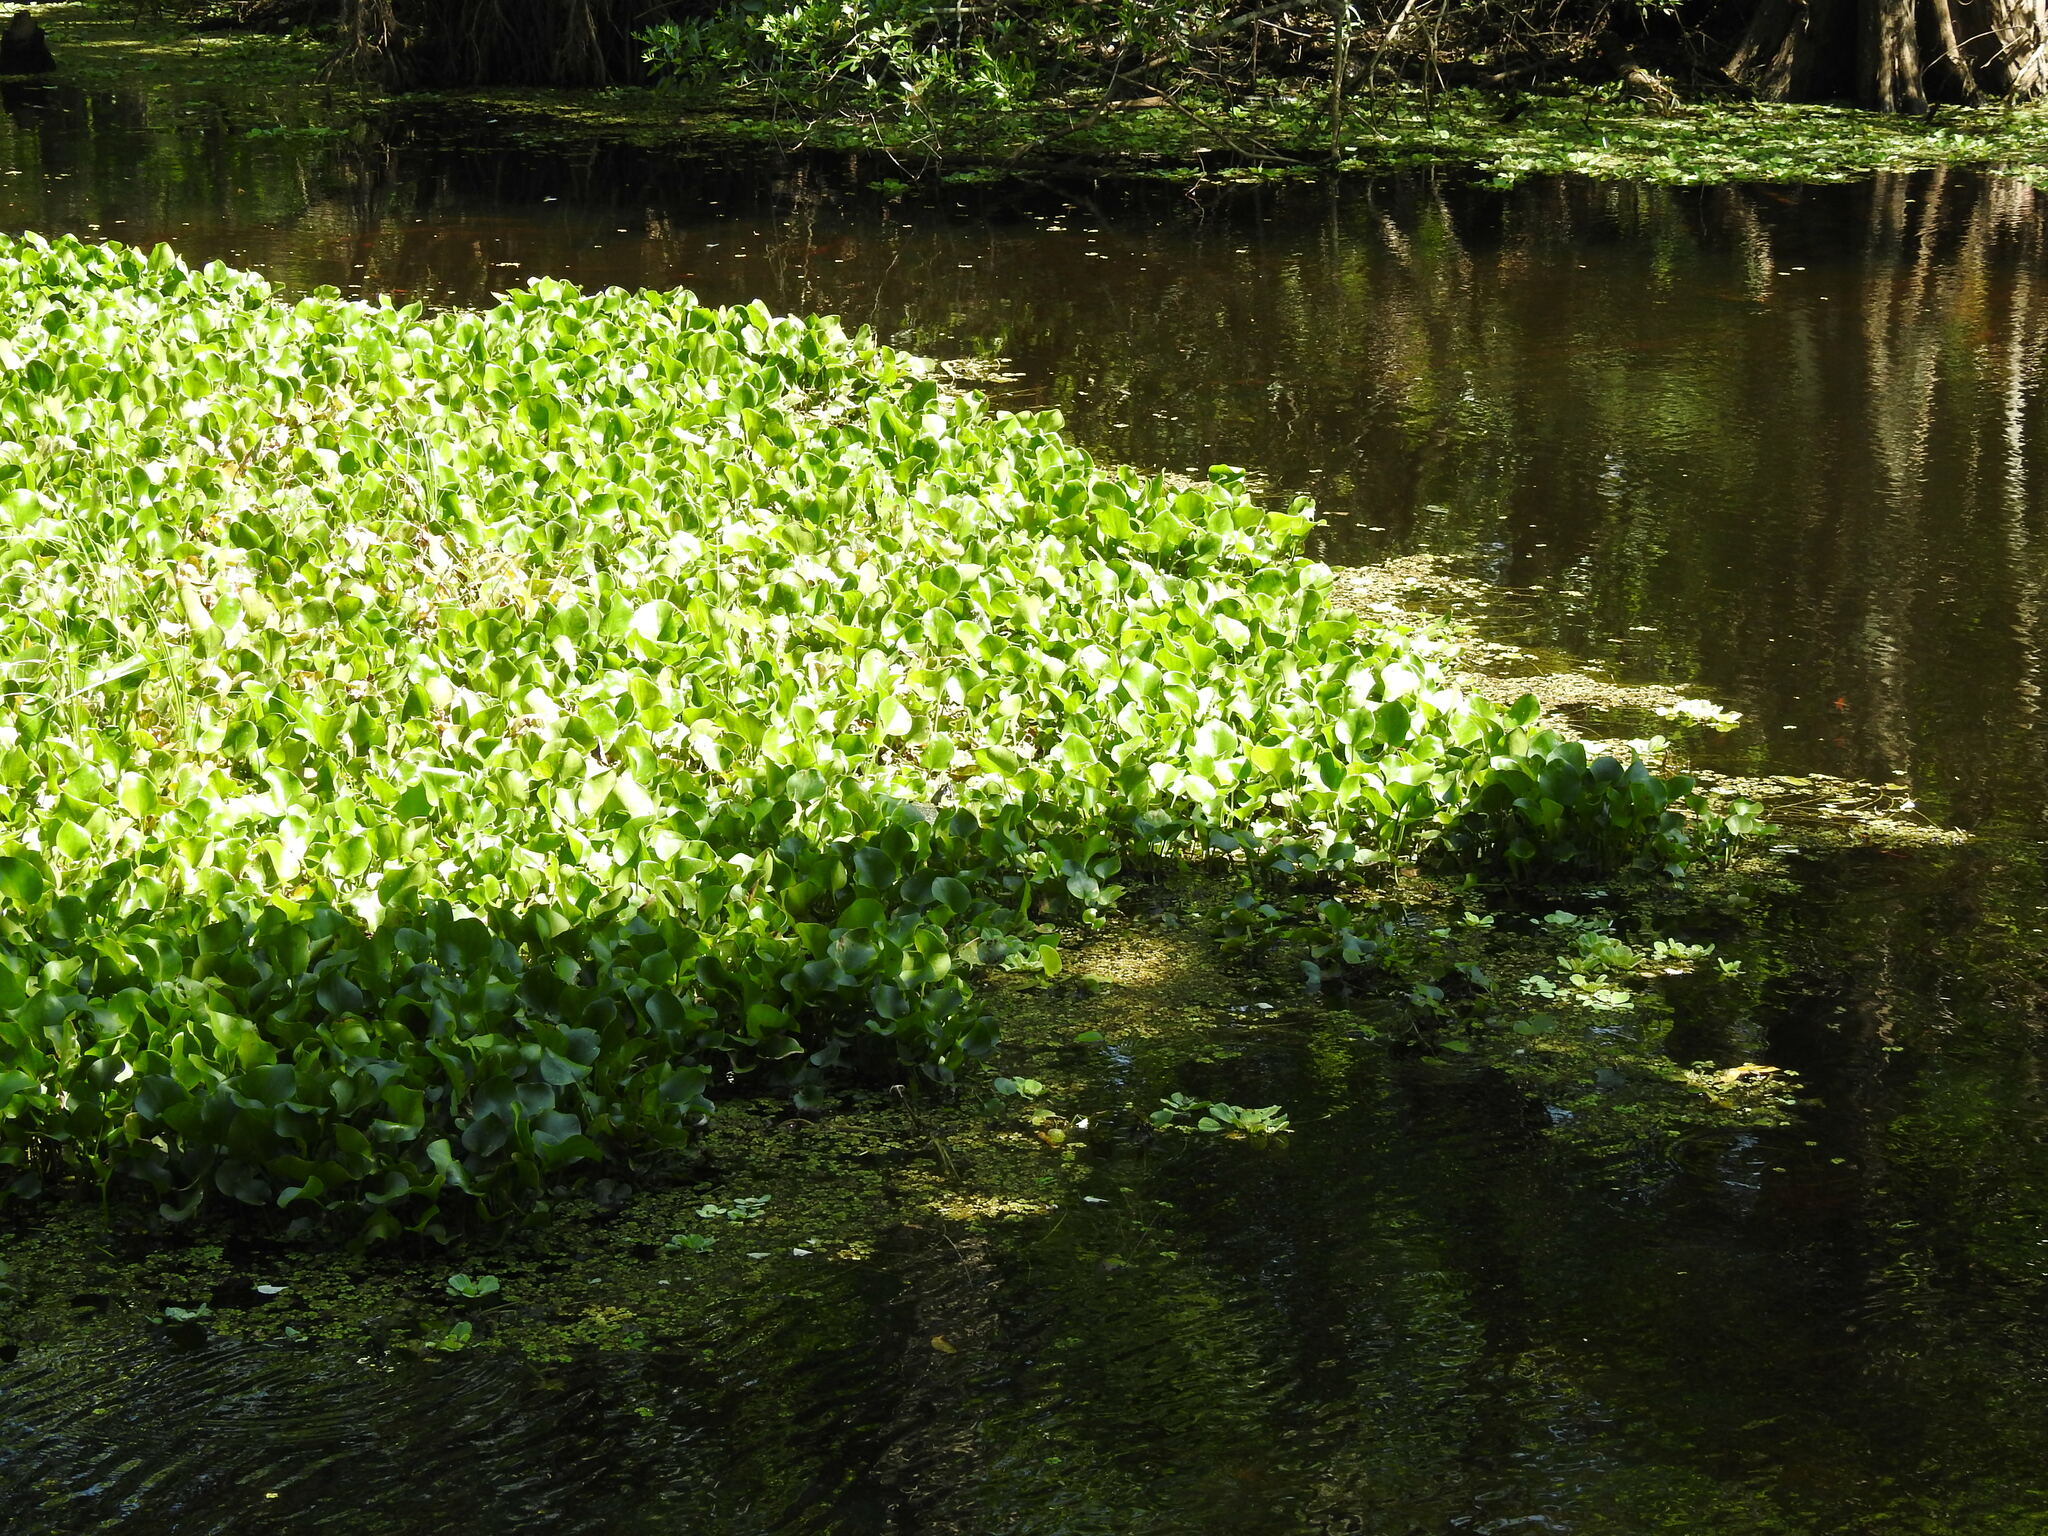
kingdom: Plantae
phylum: Tracheophyta
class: Liliopsida
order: Commelinales
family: Pontederiaceae
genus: Pontederia
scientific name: Pontederia crassipes
